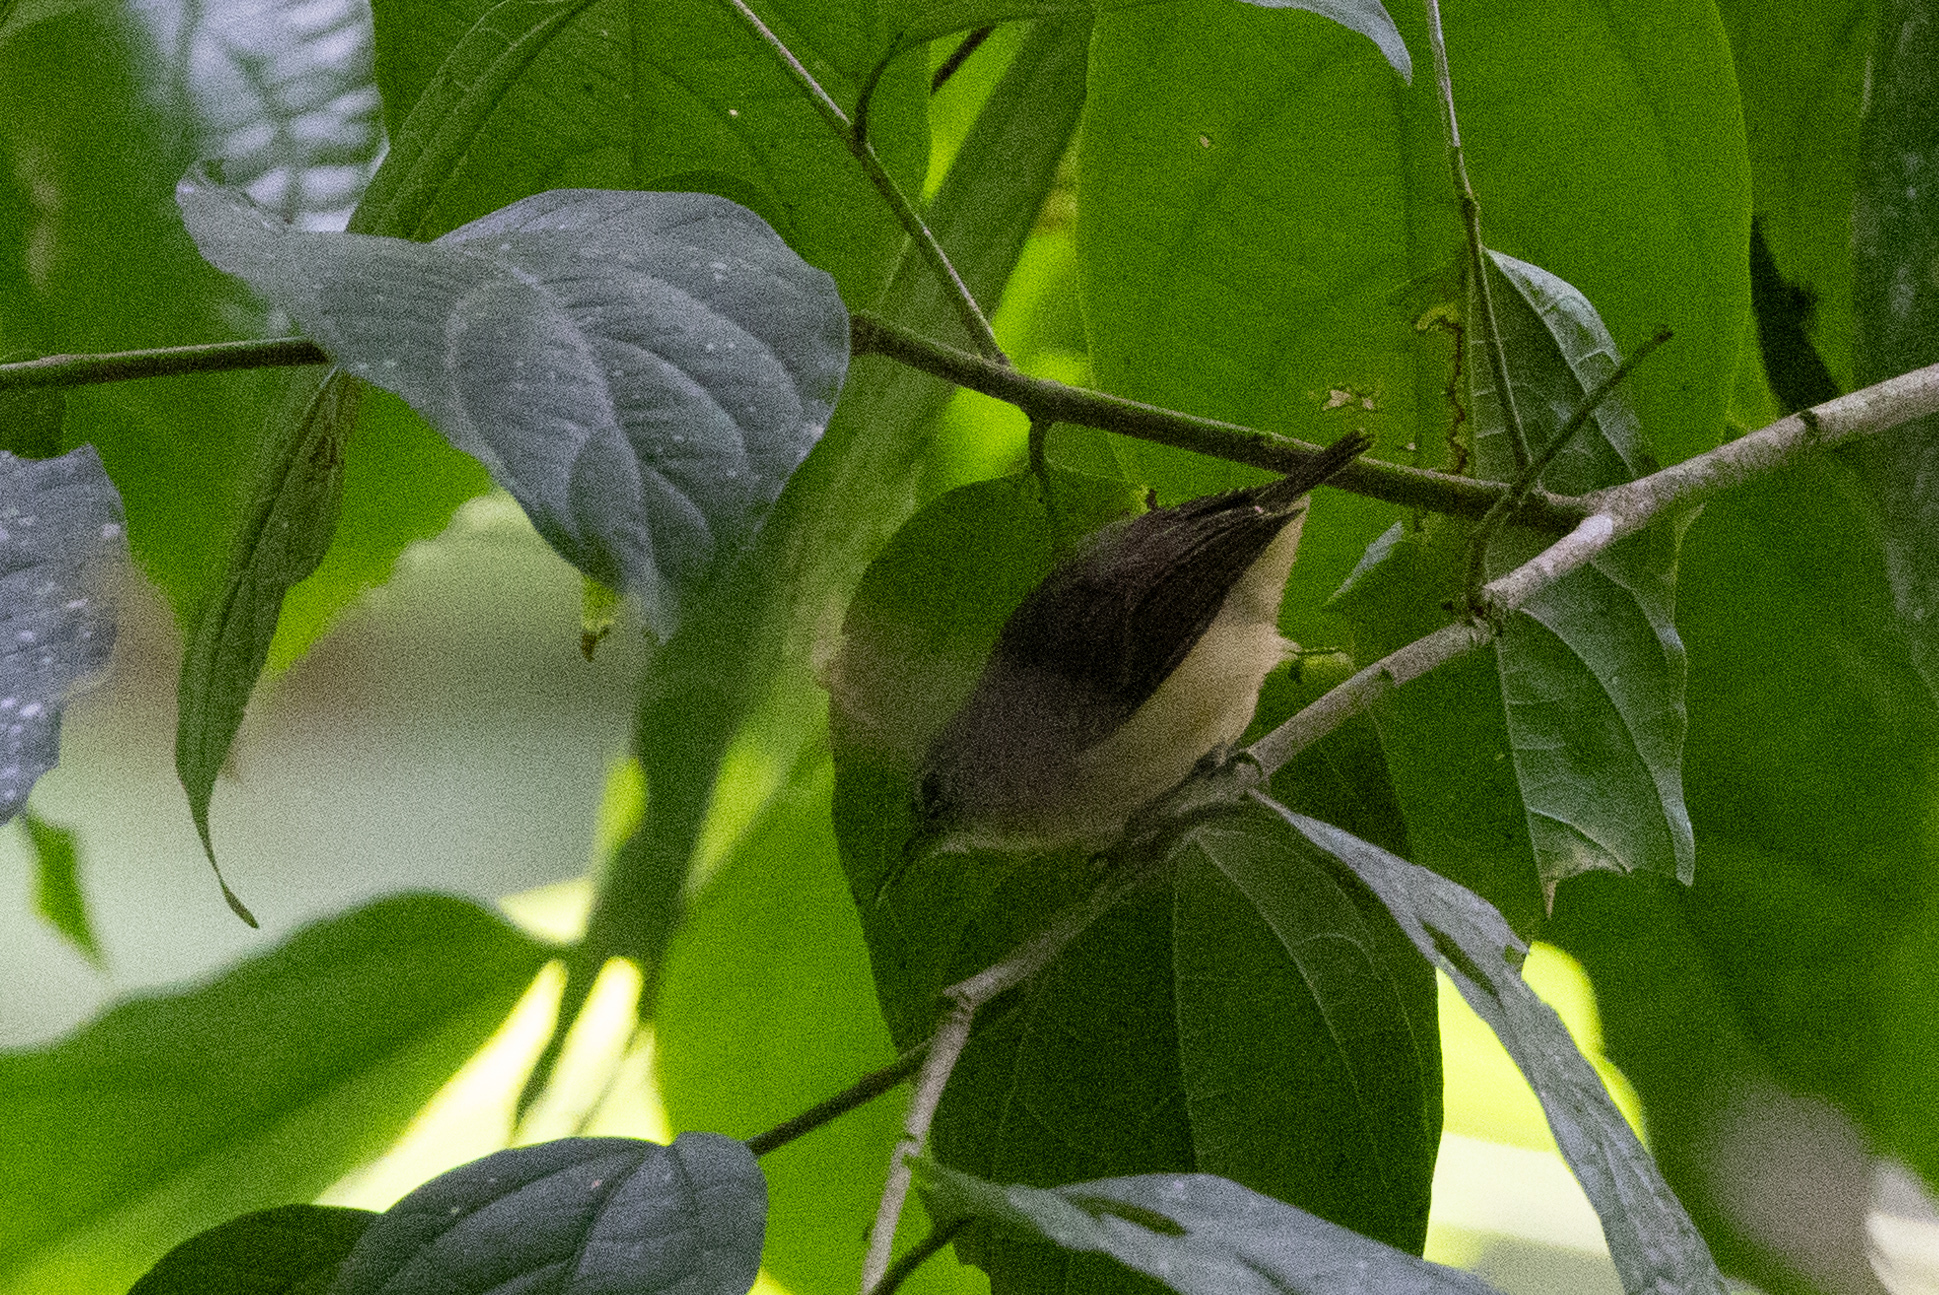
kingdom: Animalia
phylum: Chordata
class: Aves
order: Passeriformes
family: Thamnophilidae
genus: Myrmotherula
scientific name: Myrmotherula axillaris
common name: White-flanked antwren
